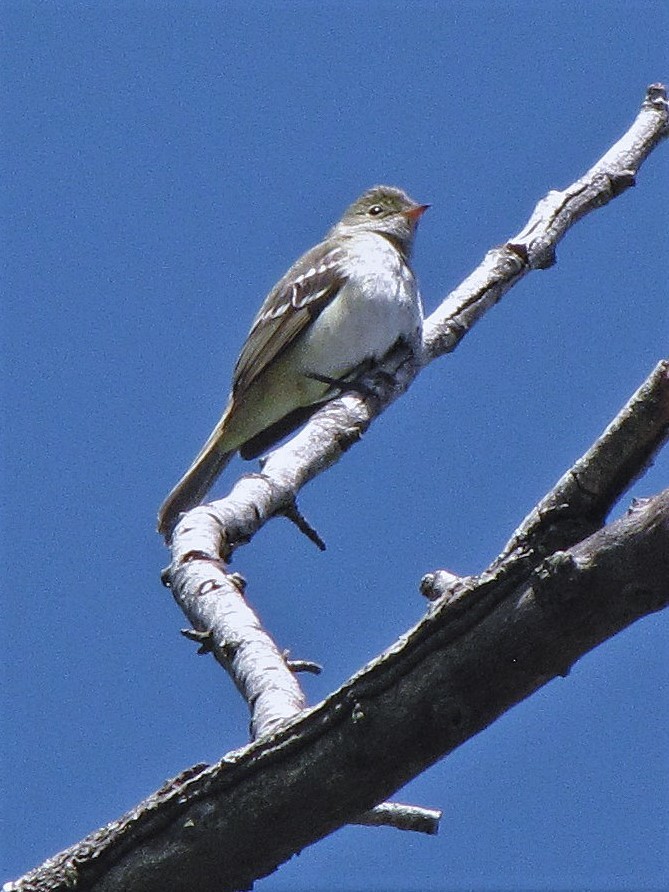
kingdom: Animalia
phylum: Chordata
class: Aves
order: Passeriformes
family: Tyrannidae
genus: Elaenia
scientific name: Elaenia parvirostris
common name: Small-billed elaenia
